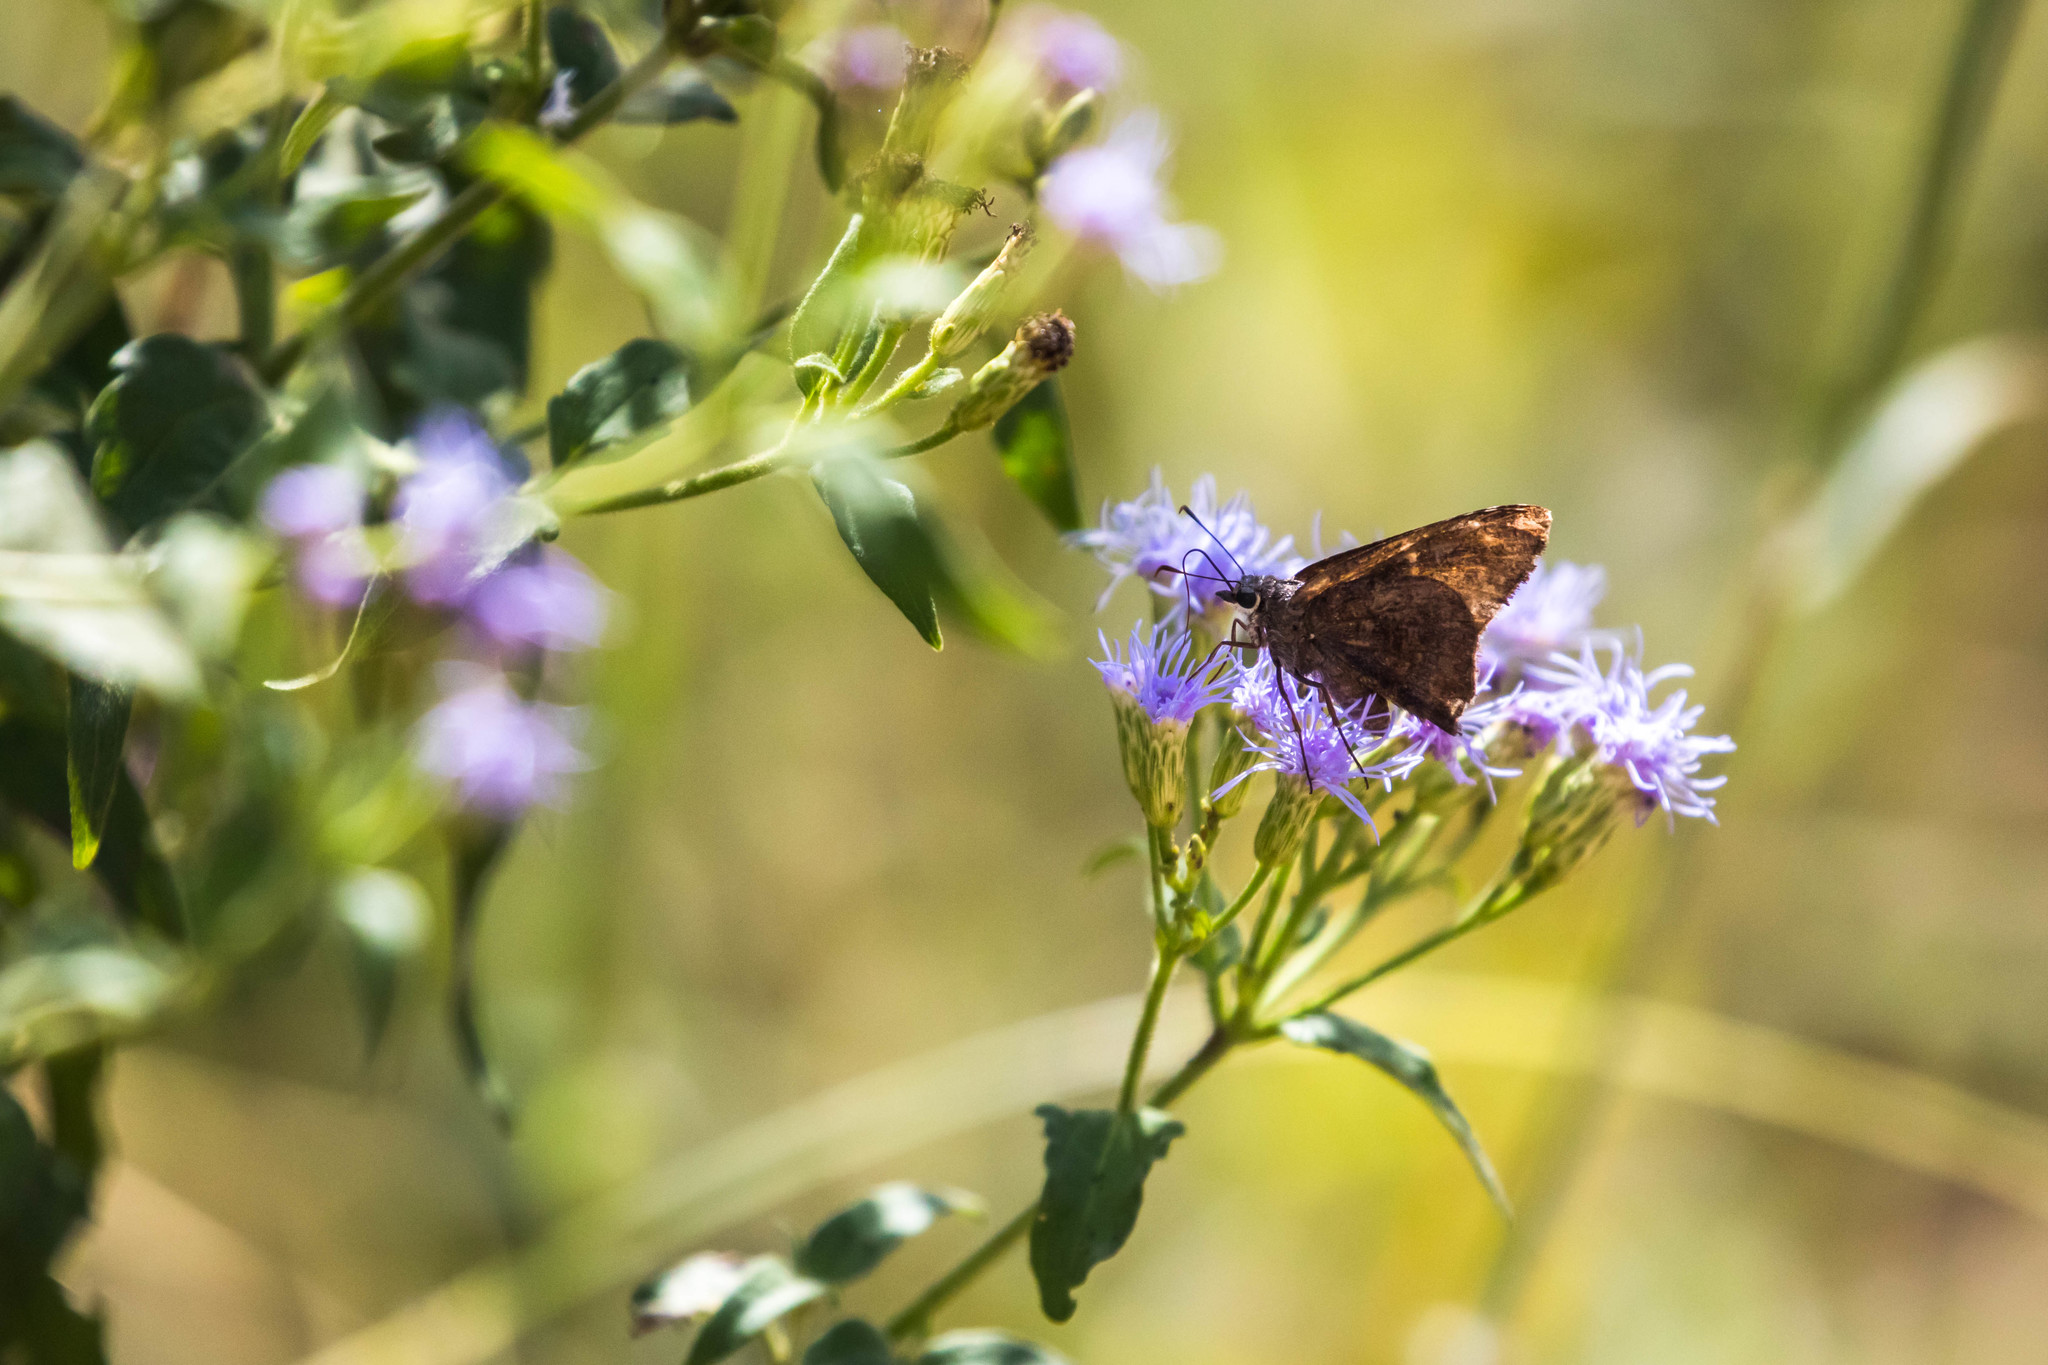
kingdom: Animalia
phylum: Arthropoda
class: Insecta
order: Lepidoptera
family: Hesperiidae
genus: Caicella
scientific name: Caicella calchas
